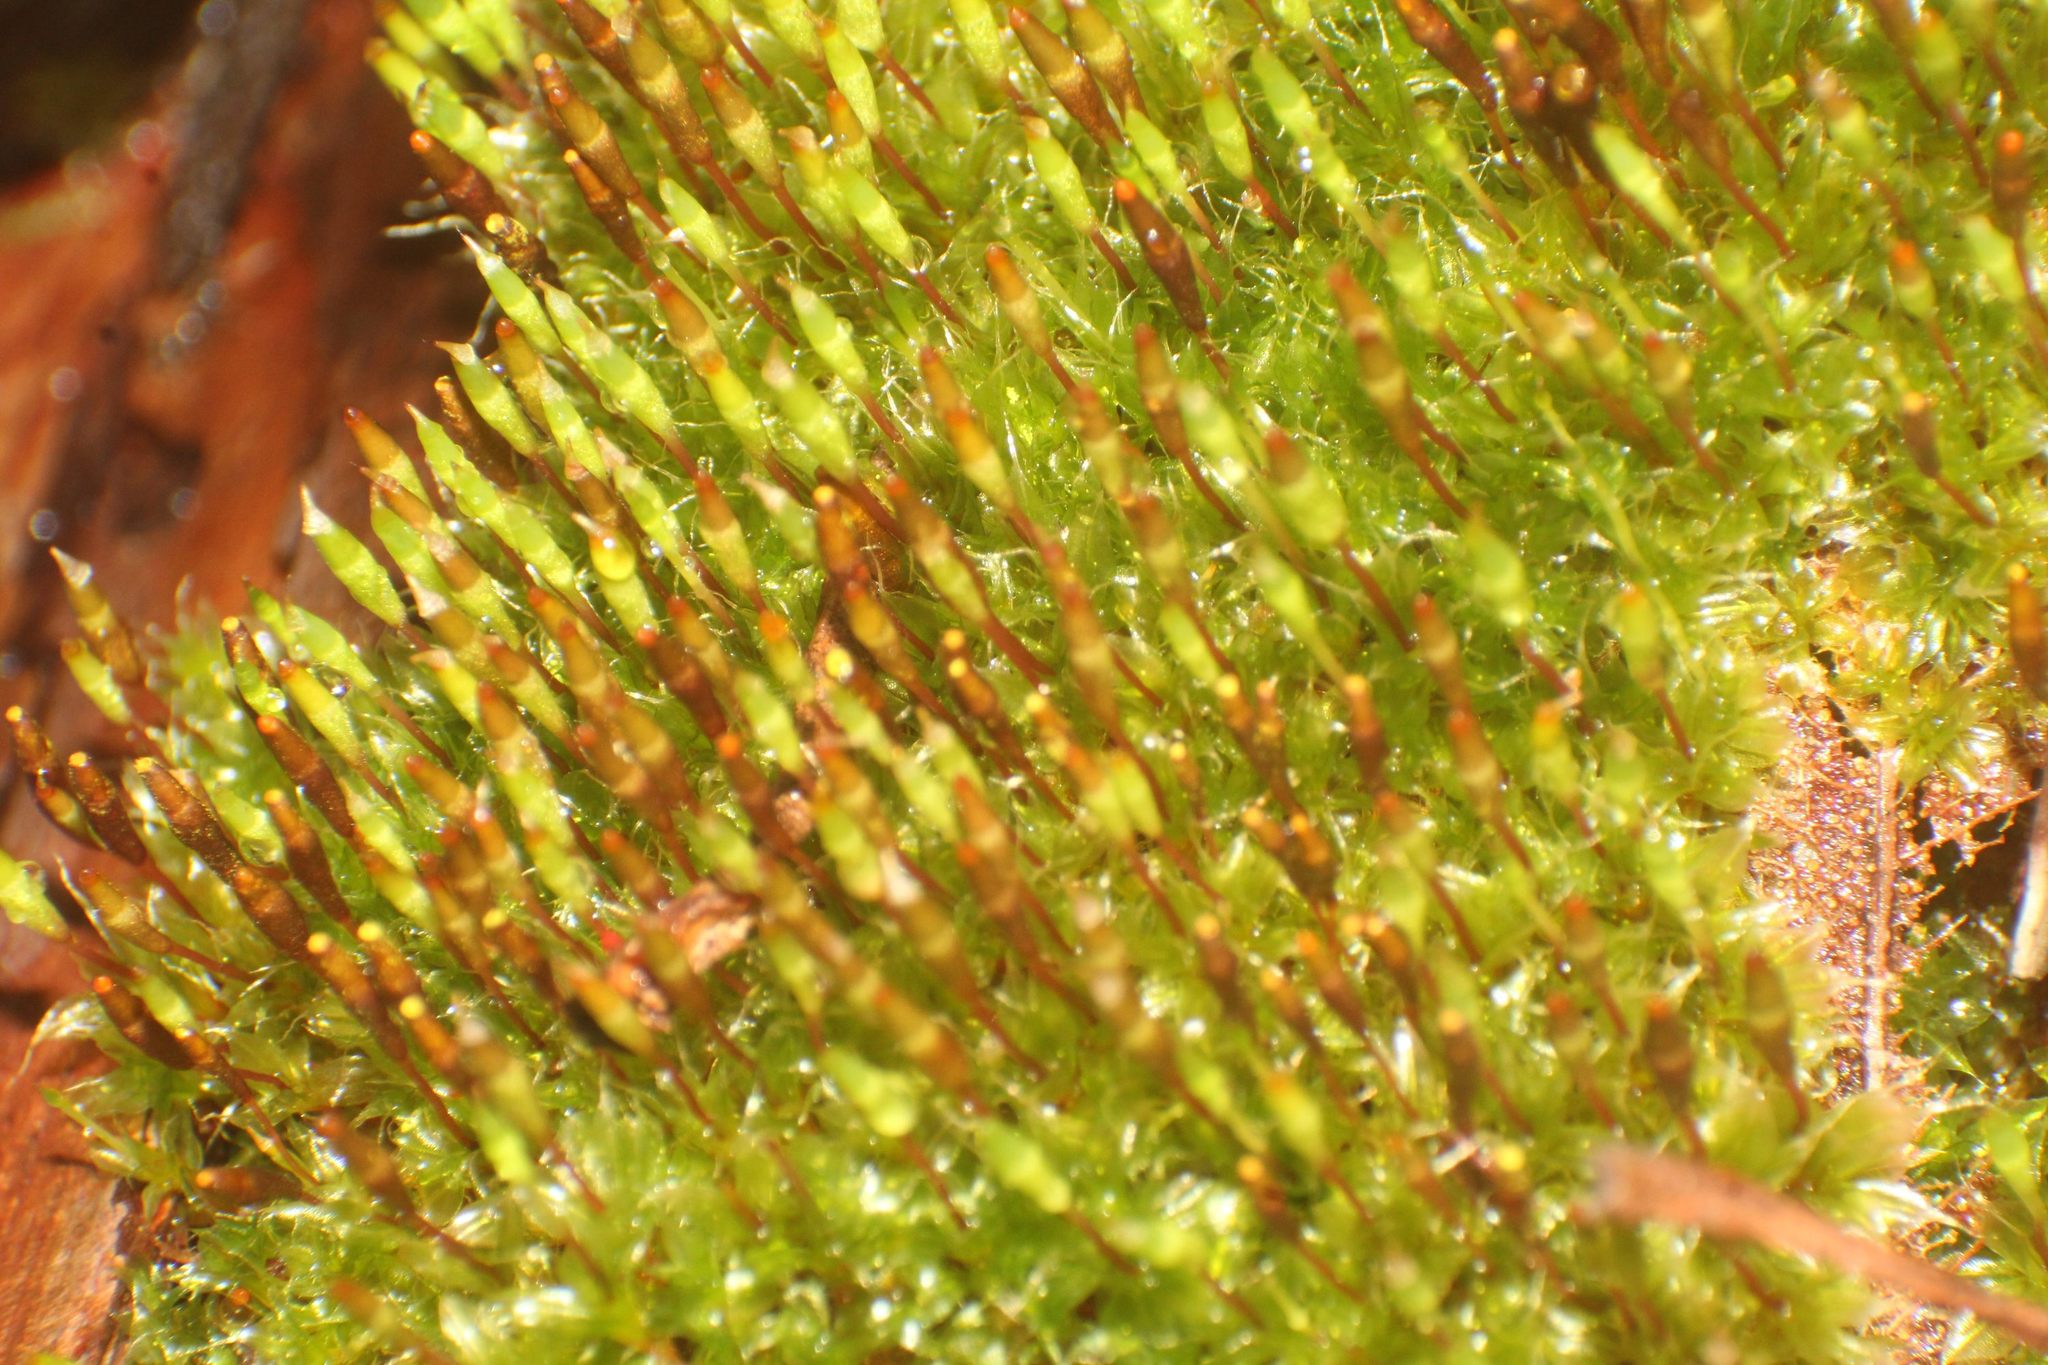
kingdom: Plantae
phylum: Bryophyta
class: Bryopsida
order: Splachnales
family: Splachnaceae
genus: Tayloria
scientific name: Tayloria octoblephara
